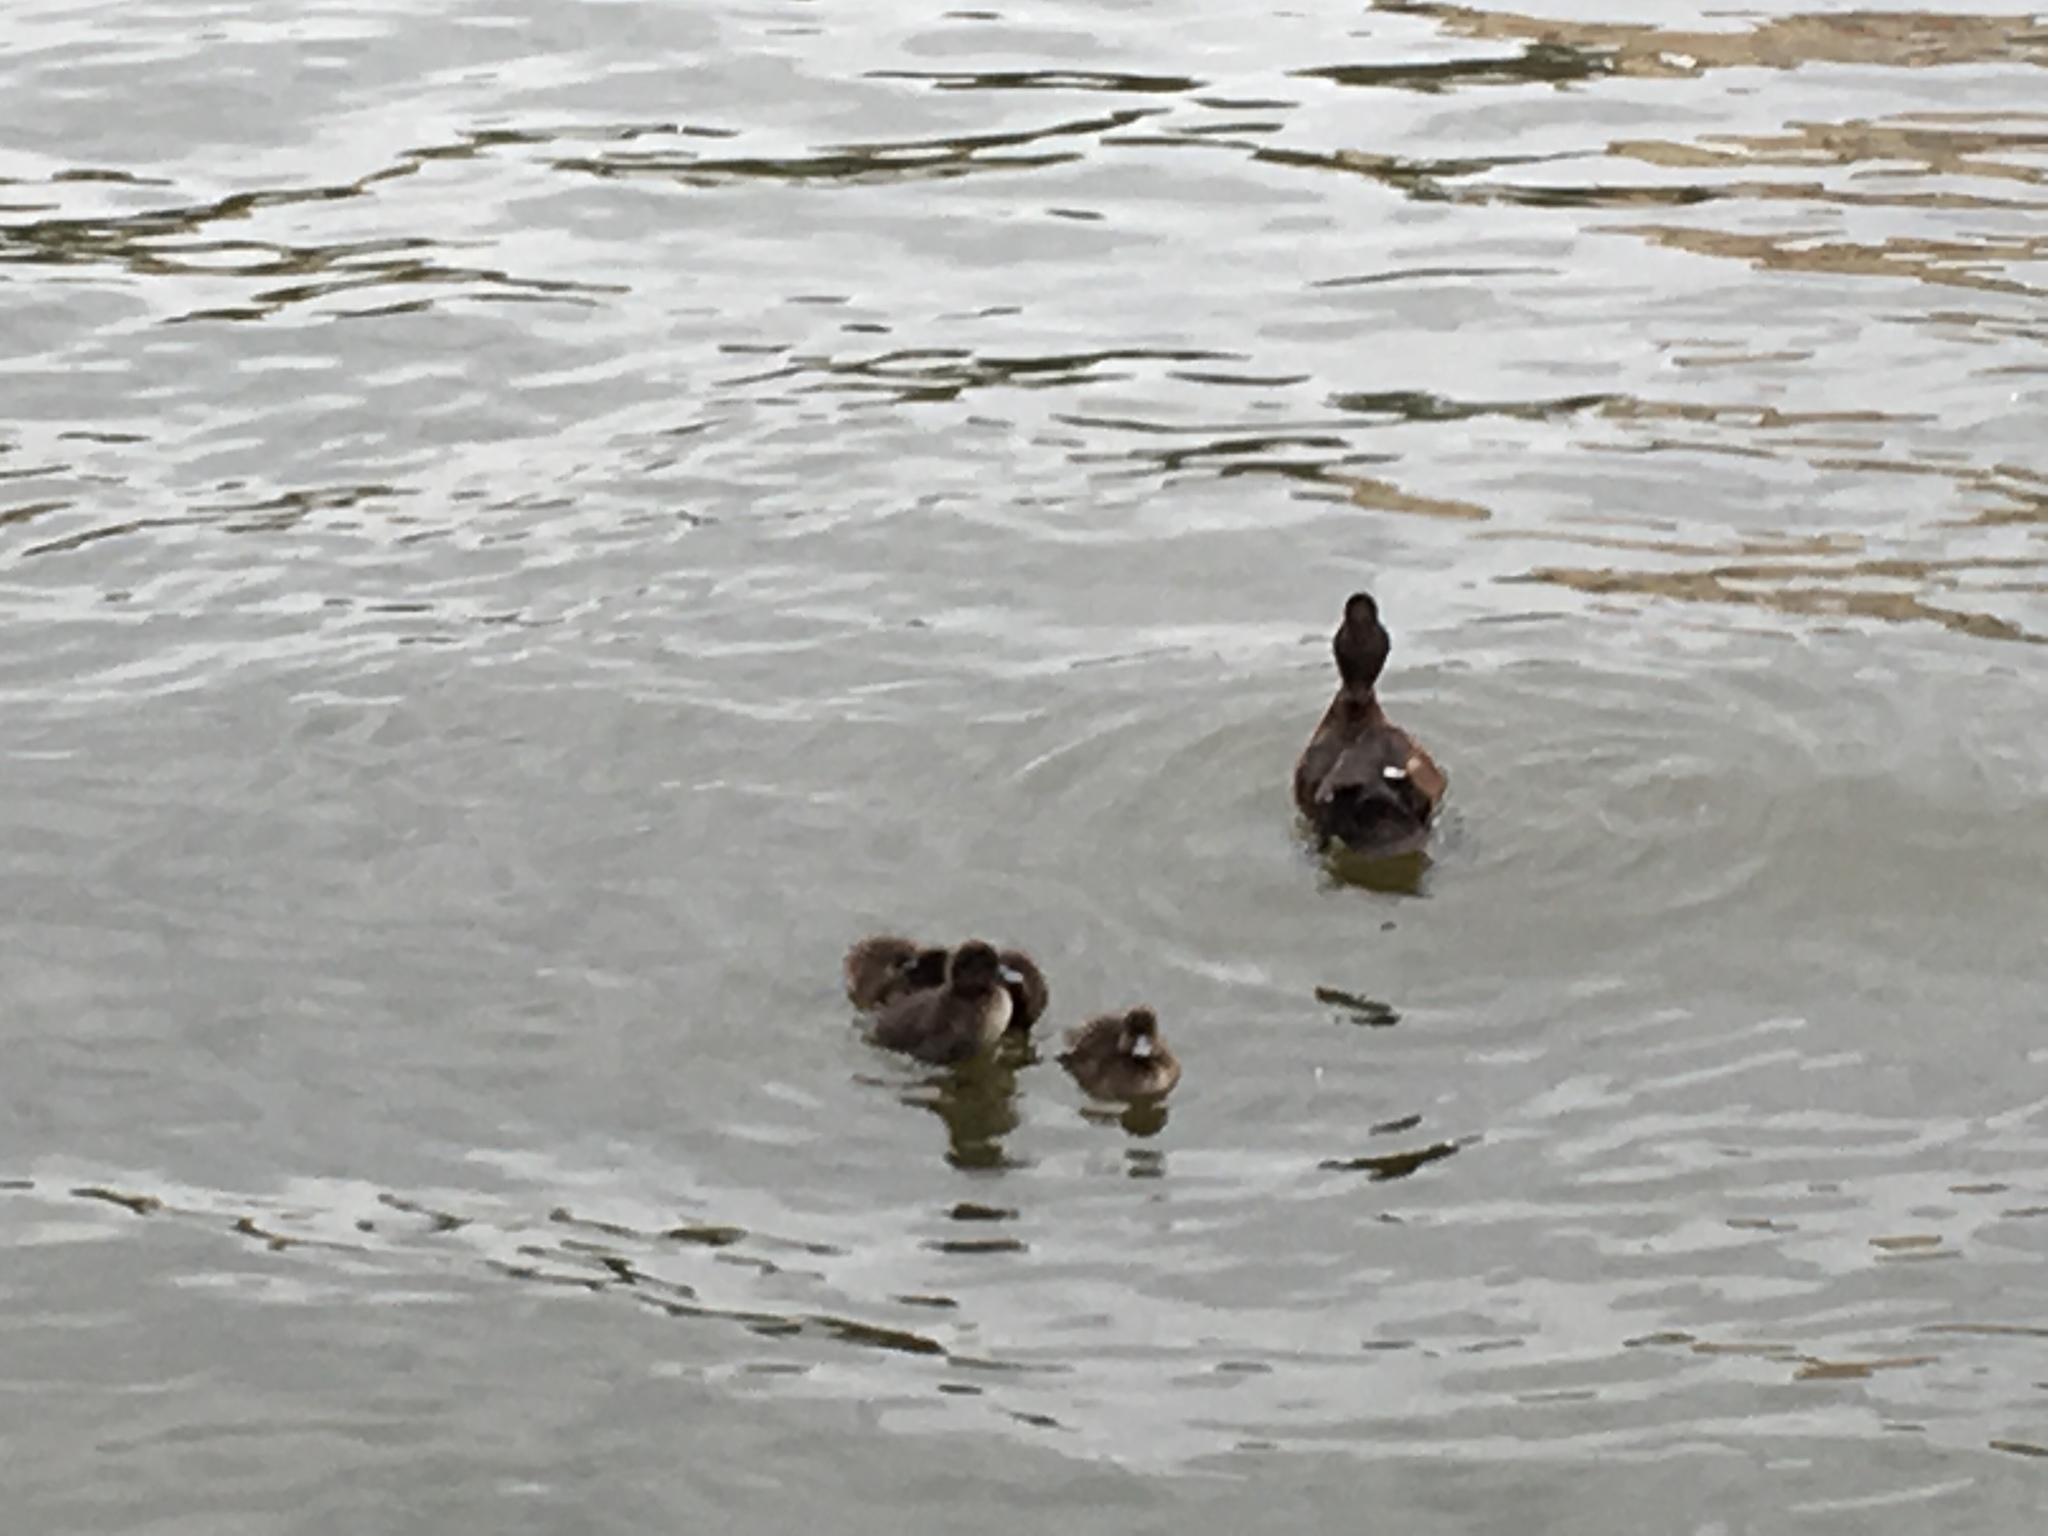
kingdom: Animalia
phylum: Chordata
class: Aves
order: Anseriformes
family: Anatidae
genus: Aythya
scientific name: Aythya fuligula
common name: Tufted duck
